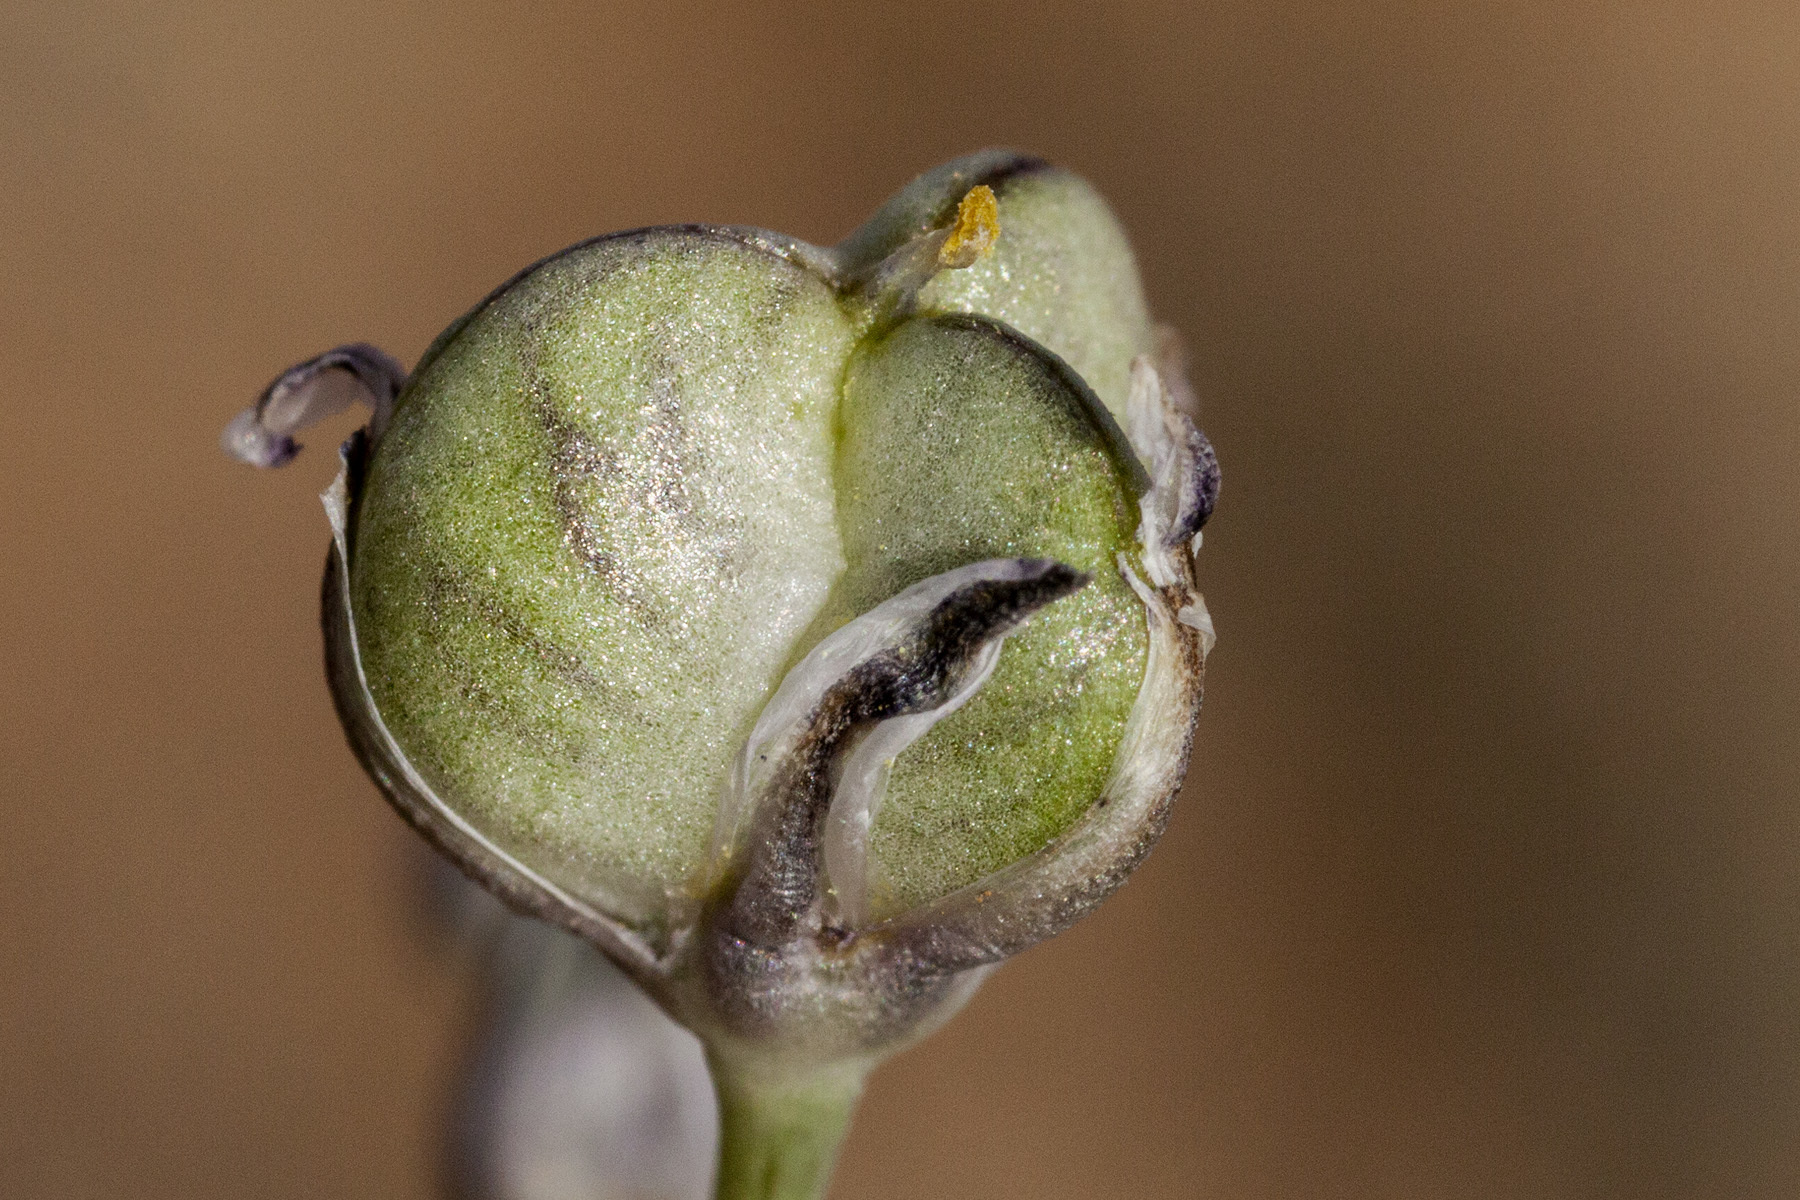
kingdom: Plantae
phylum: Tracheophyta
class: Liliopsida
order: Asparagales
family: Asparagaceae
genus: Muilla
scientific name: Muilla lordsburgana
